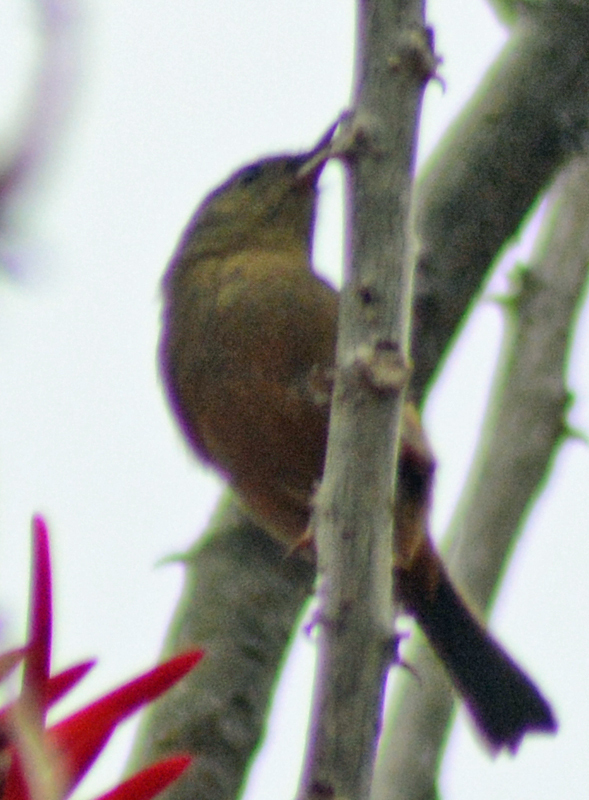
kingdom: Animalia
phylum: Chordata
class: Aves
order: Passeriformes
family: Thraupidae
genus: Diglossa
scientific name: Diglossa baritula
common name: Cinnamon-bellied flowerpiercer
